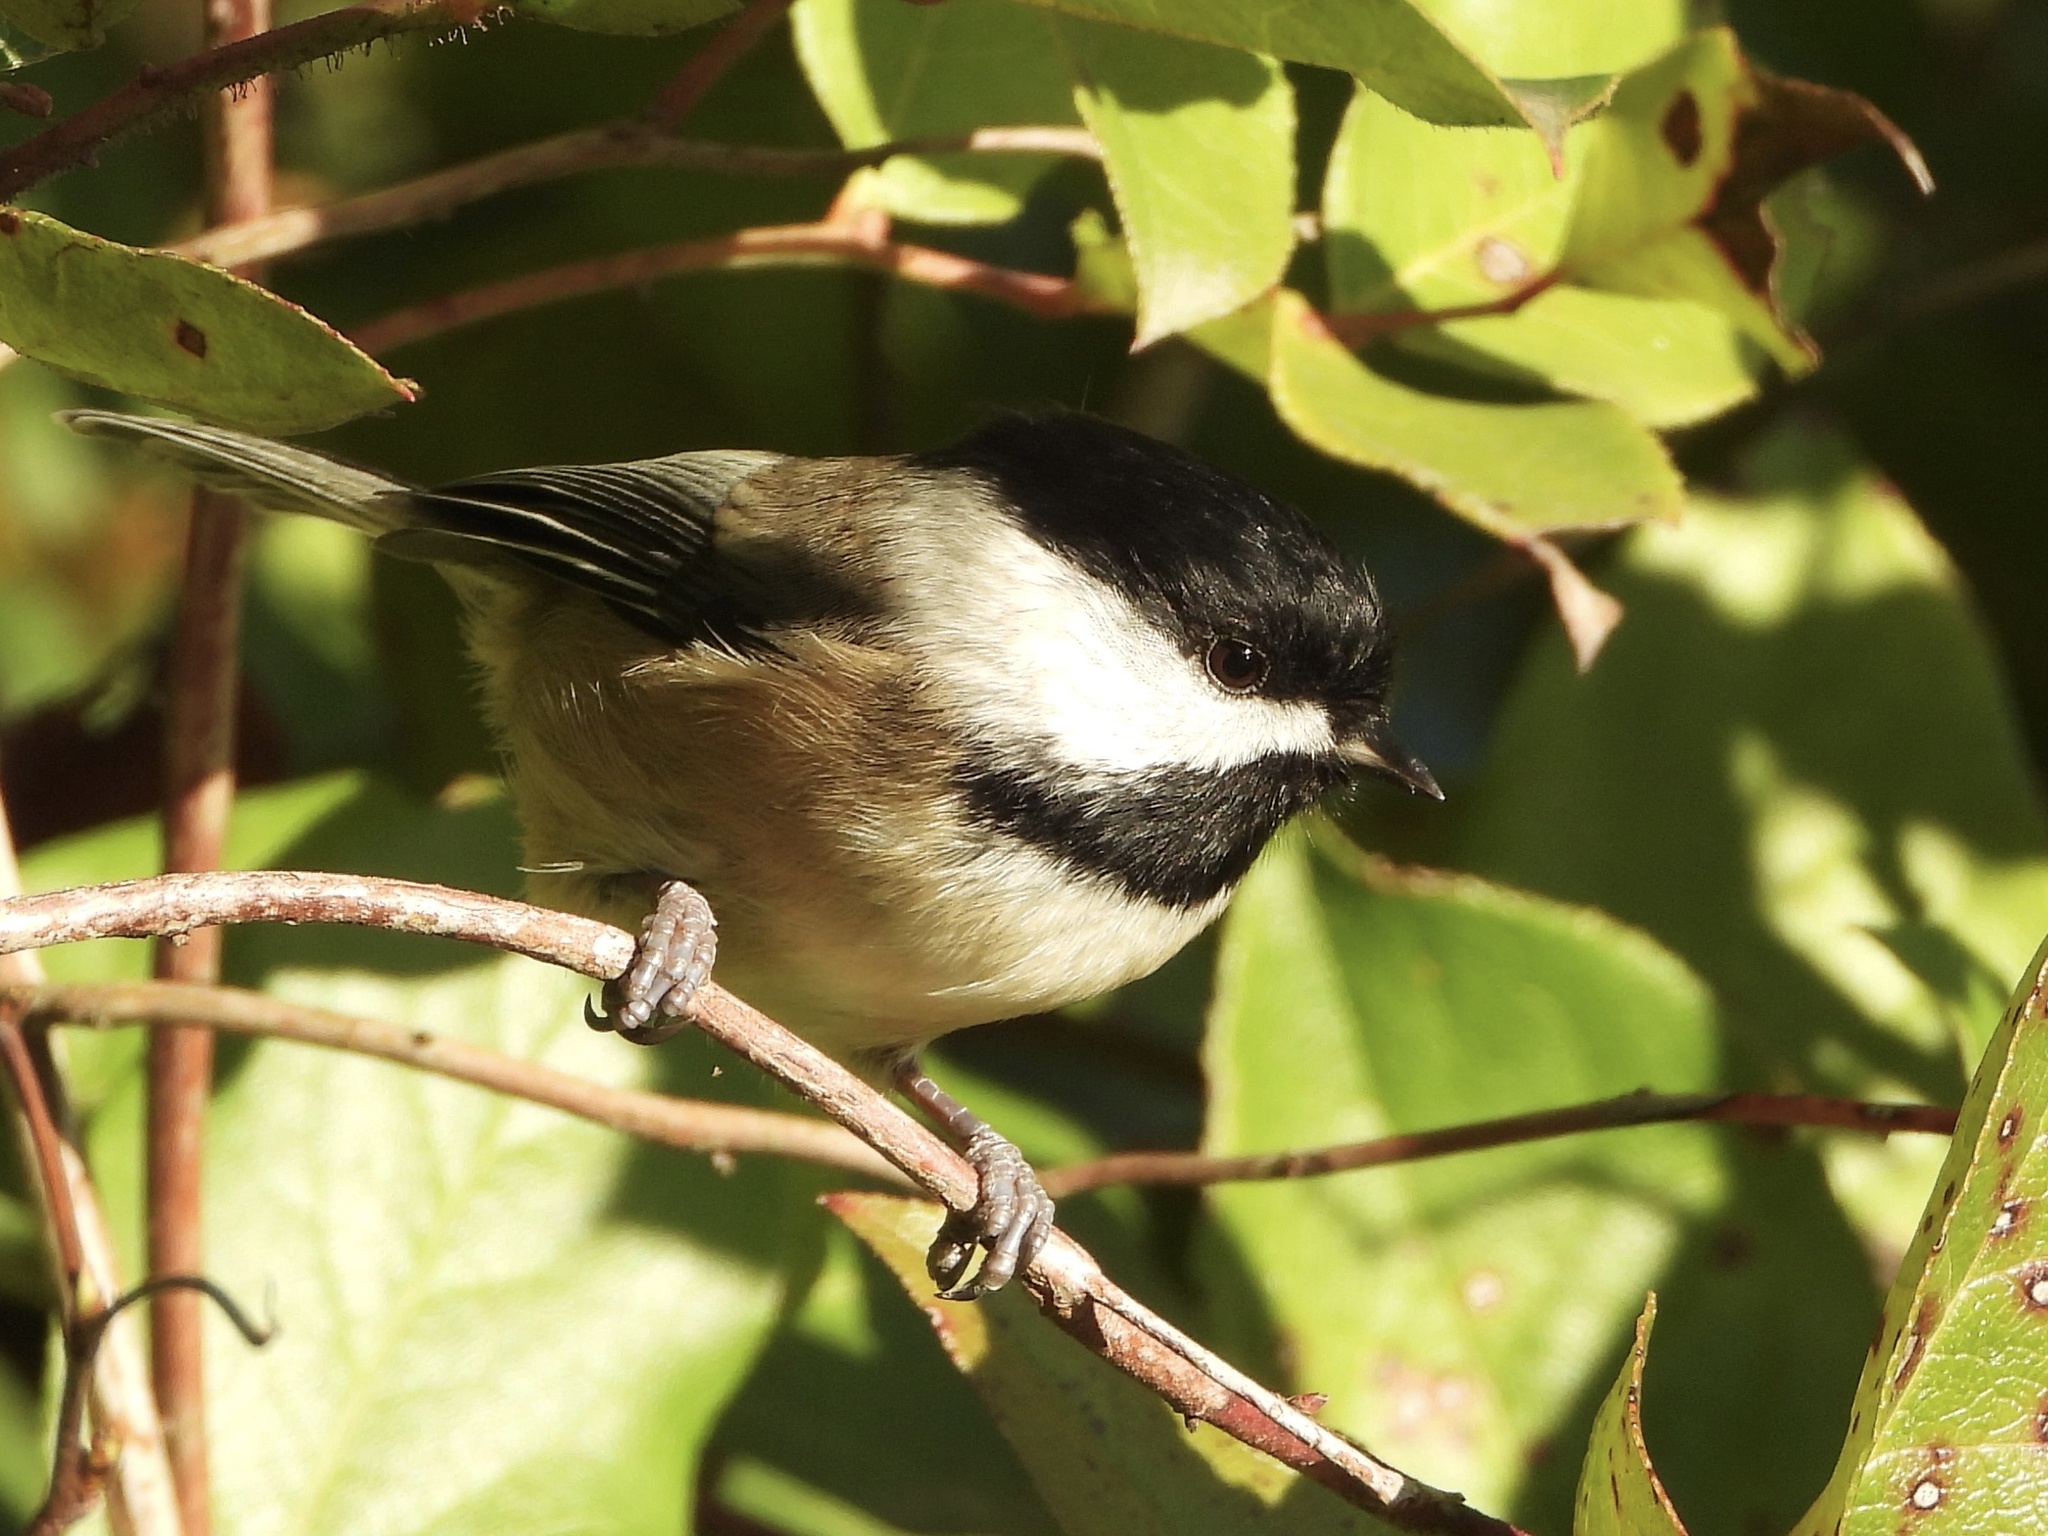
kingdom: Animalia
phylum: Chordata
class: Aves
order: Passeriformes
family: Paridae
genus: Poecile
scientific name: Poecile atricapillus
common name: Black-capped chickadee
